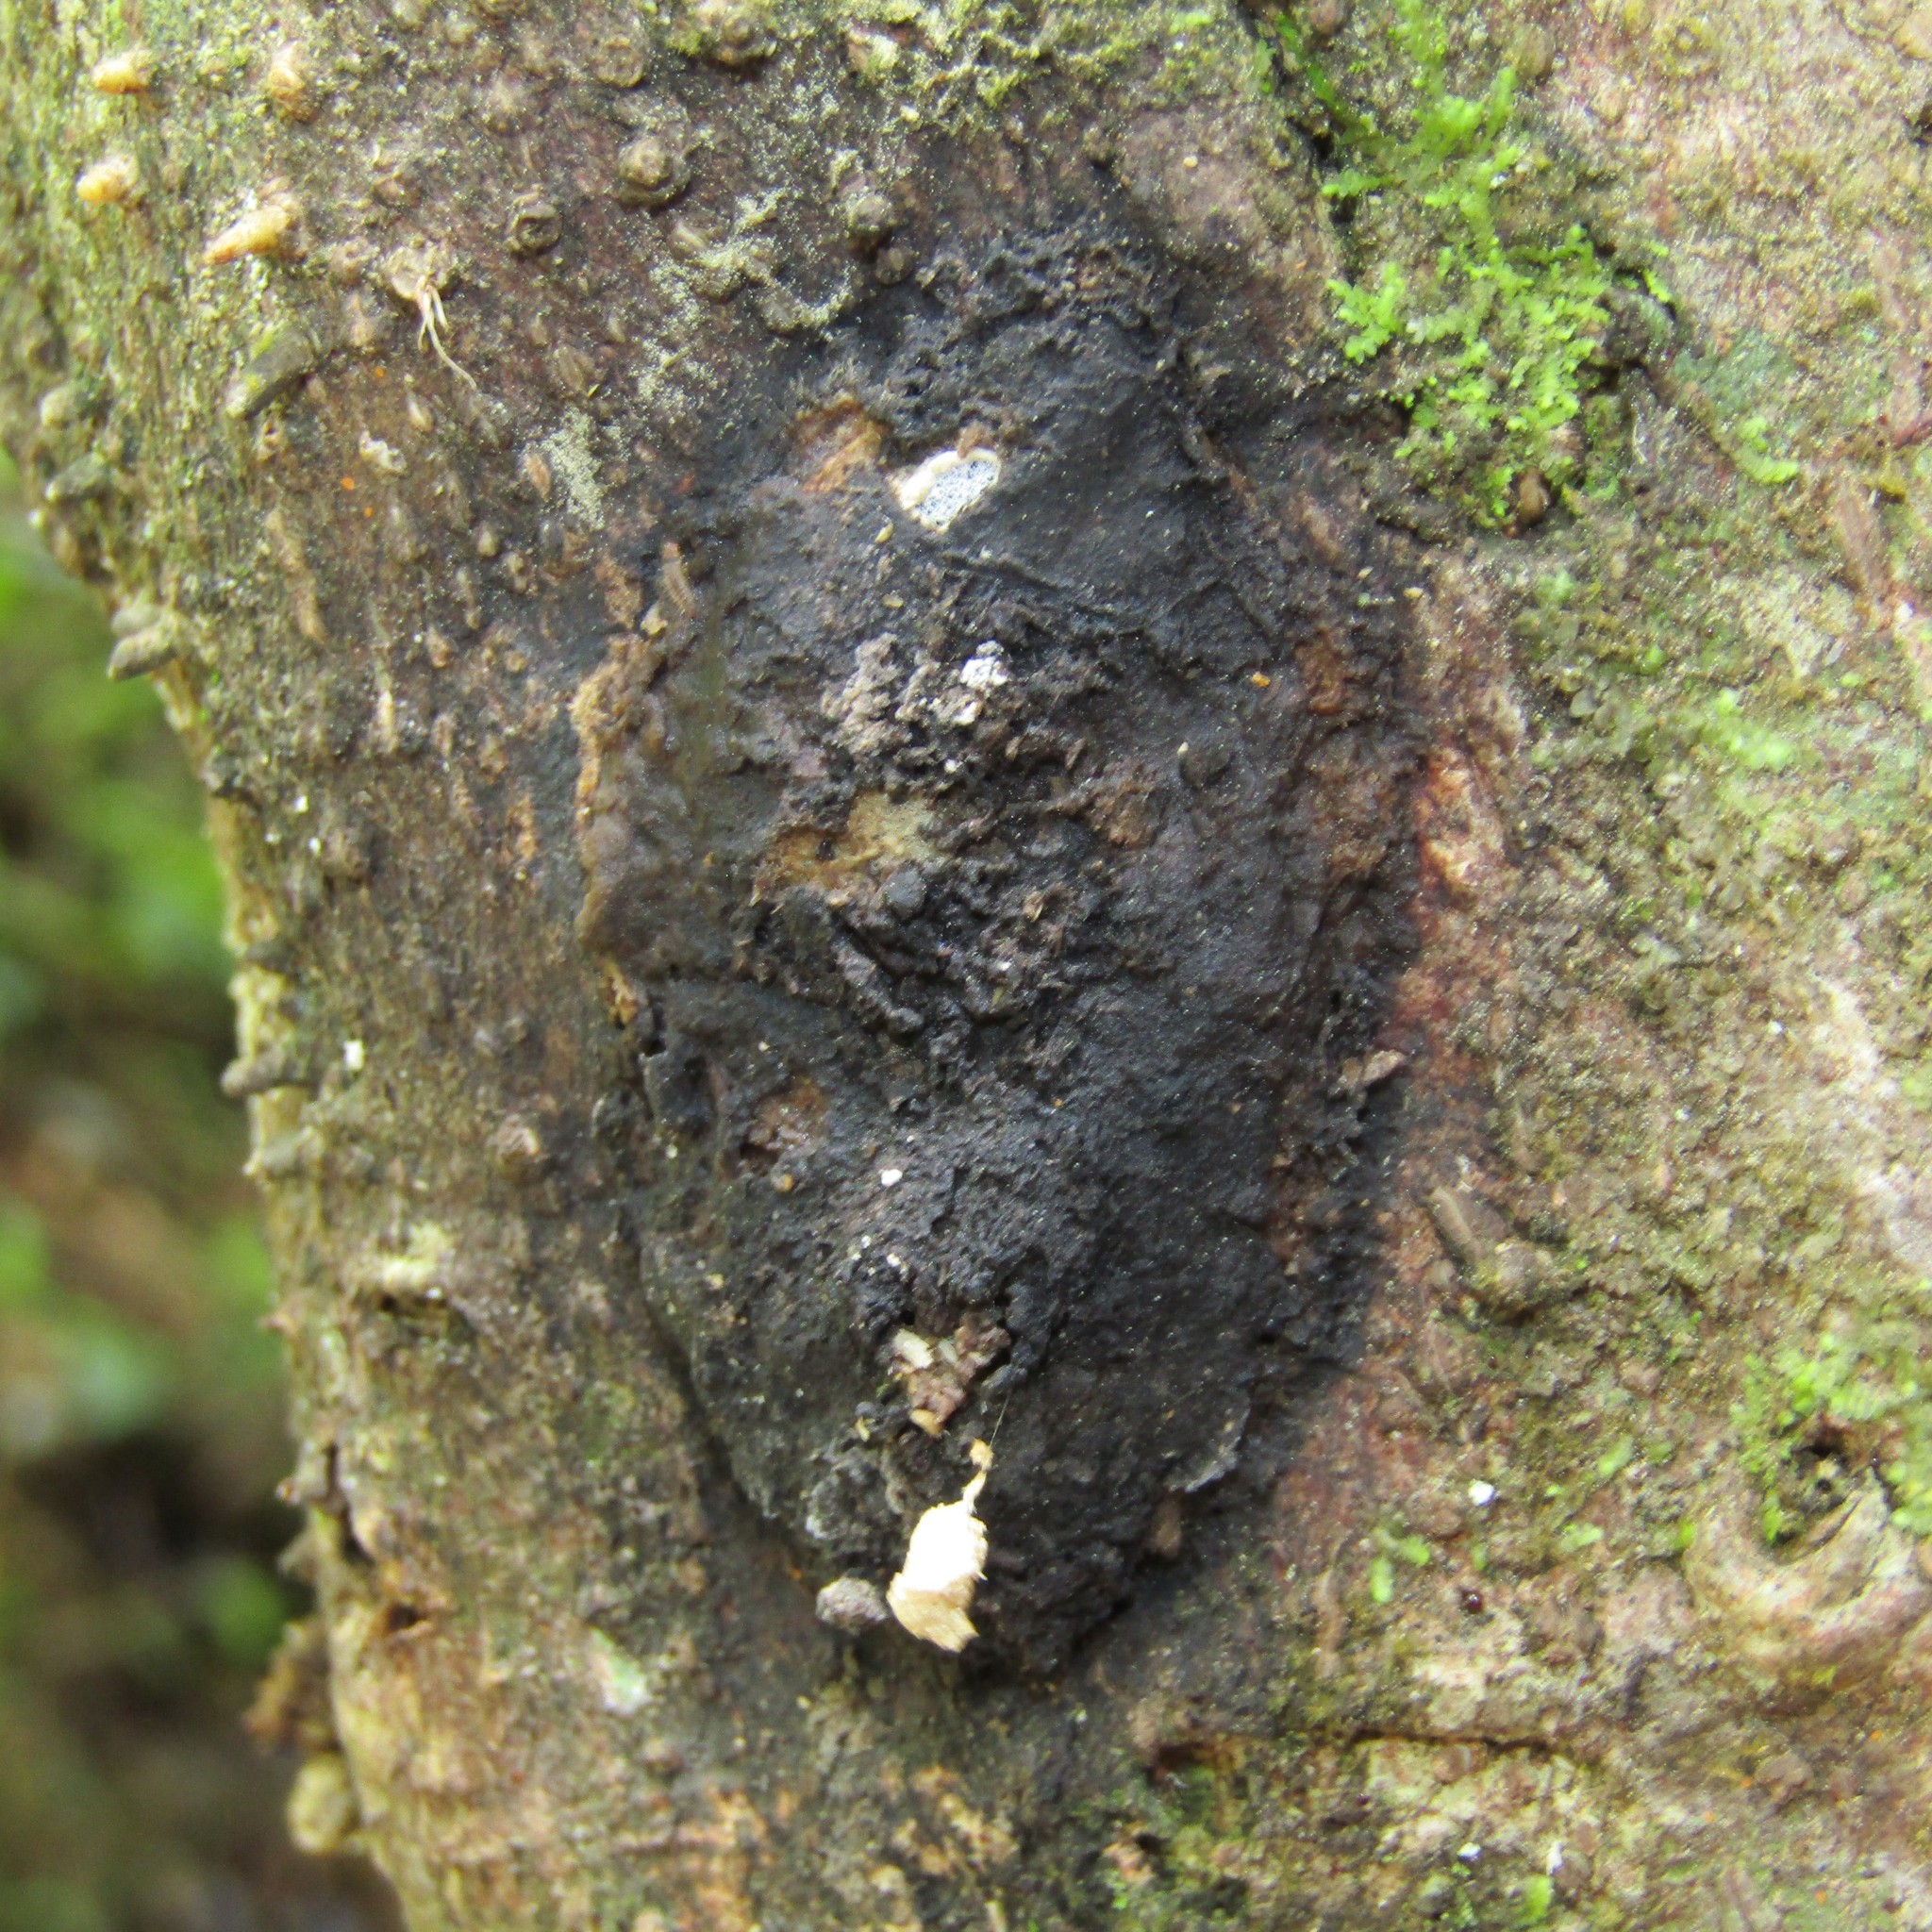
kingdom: Animalia
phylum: Arthropoda
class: Insecta
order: Lepidoptera
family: Hepialidae
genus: Aenetus
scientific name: Aenetus virescens
